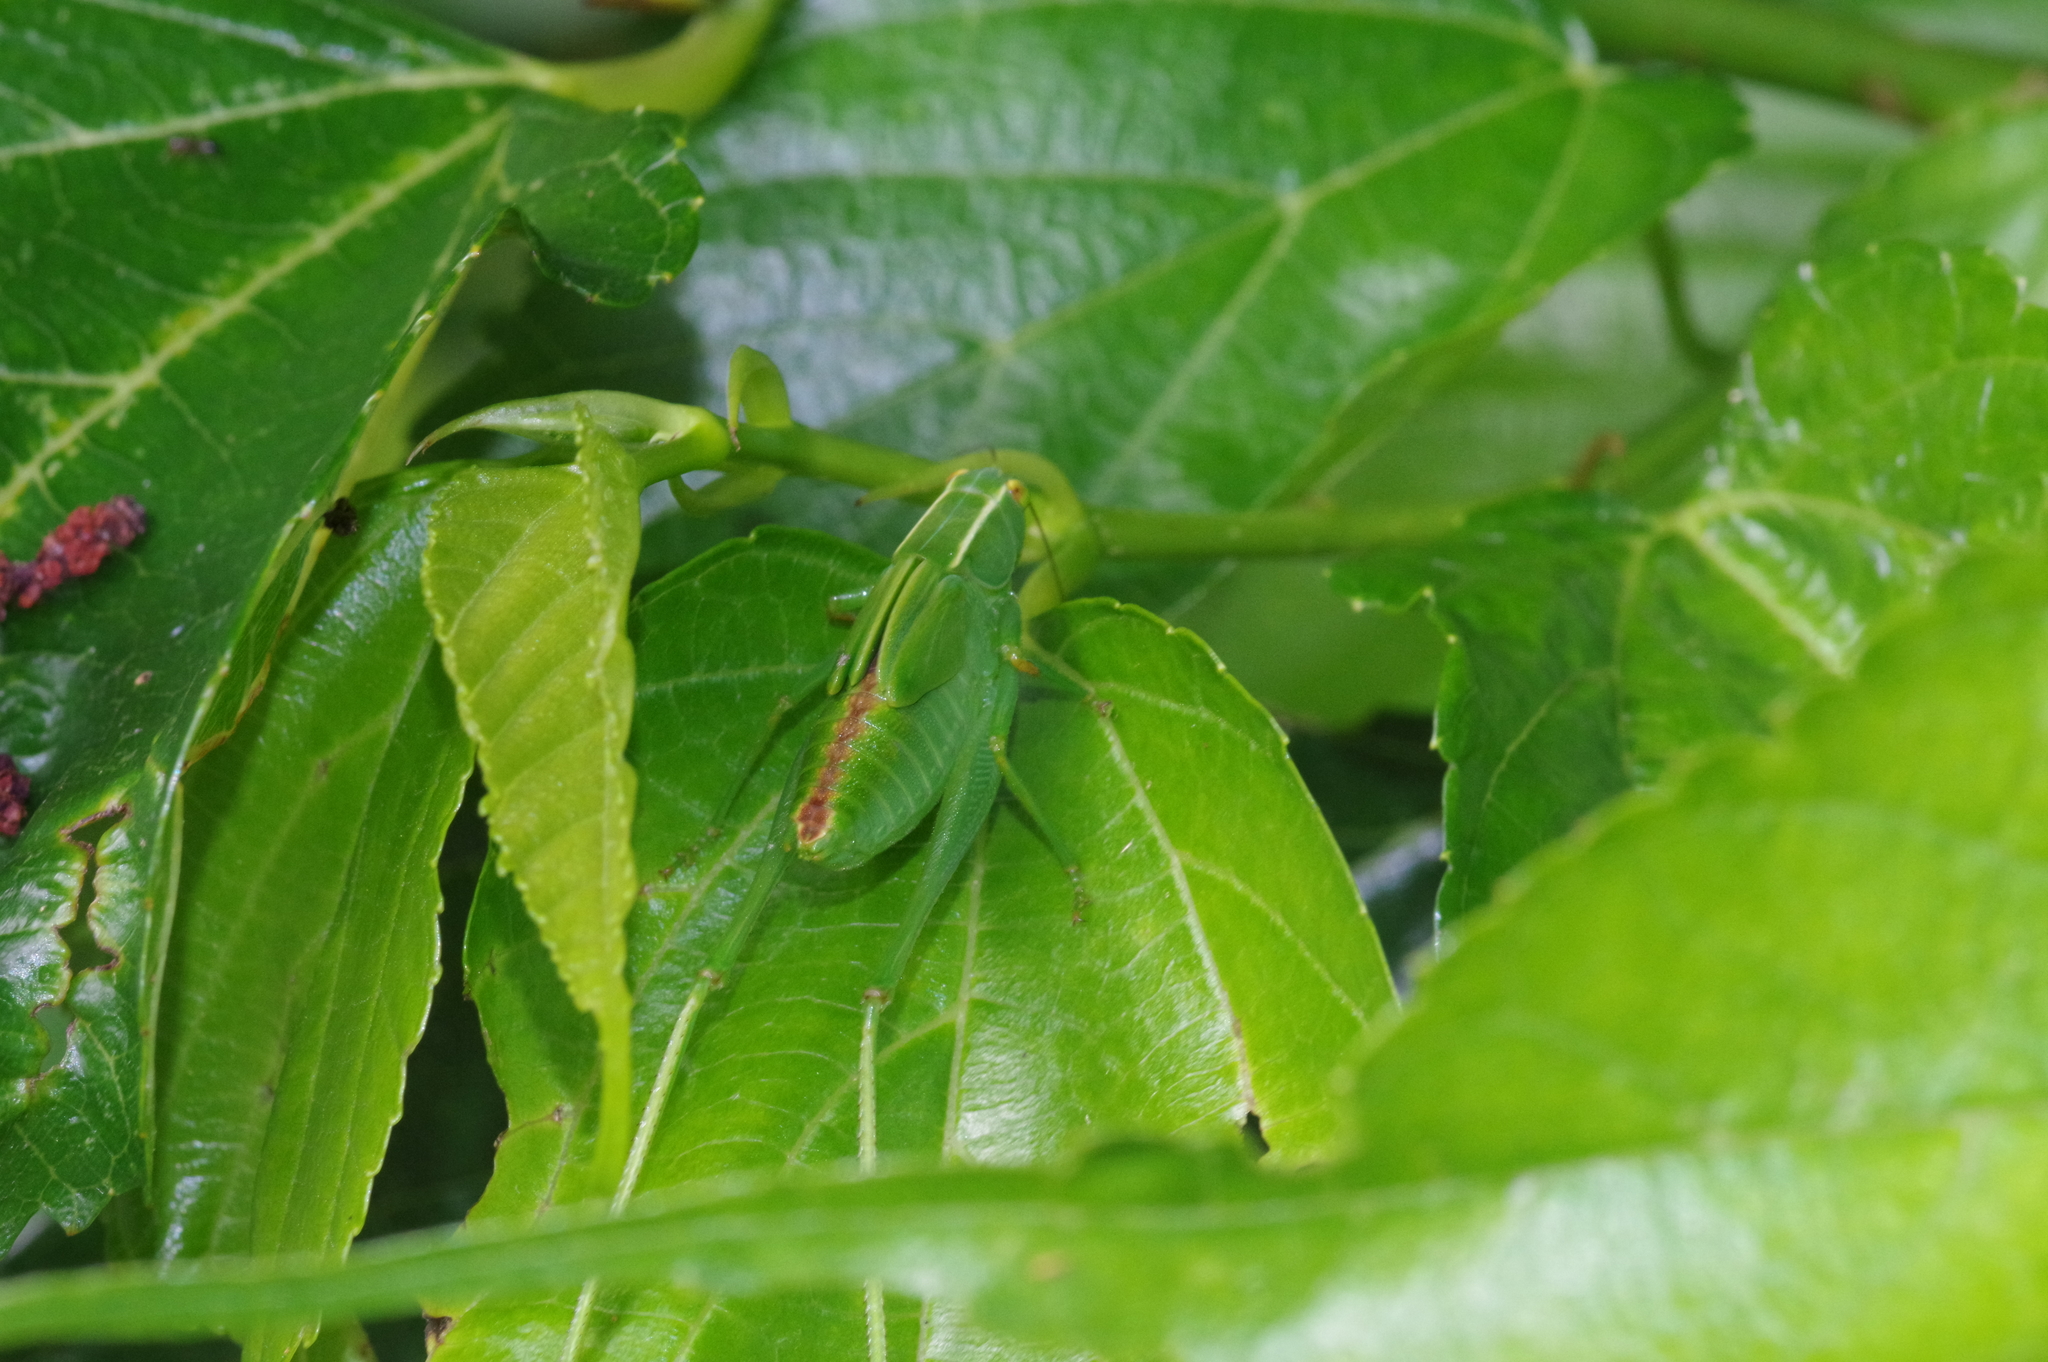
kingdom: Animalia
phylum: Arthropoda
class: Insecta
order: Orthoptera
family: Tettigoniidae
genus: Isopsera
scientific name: Isopsera denticulata
